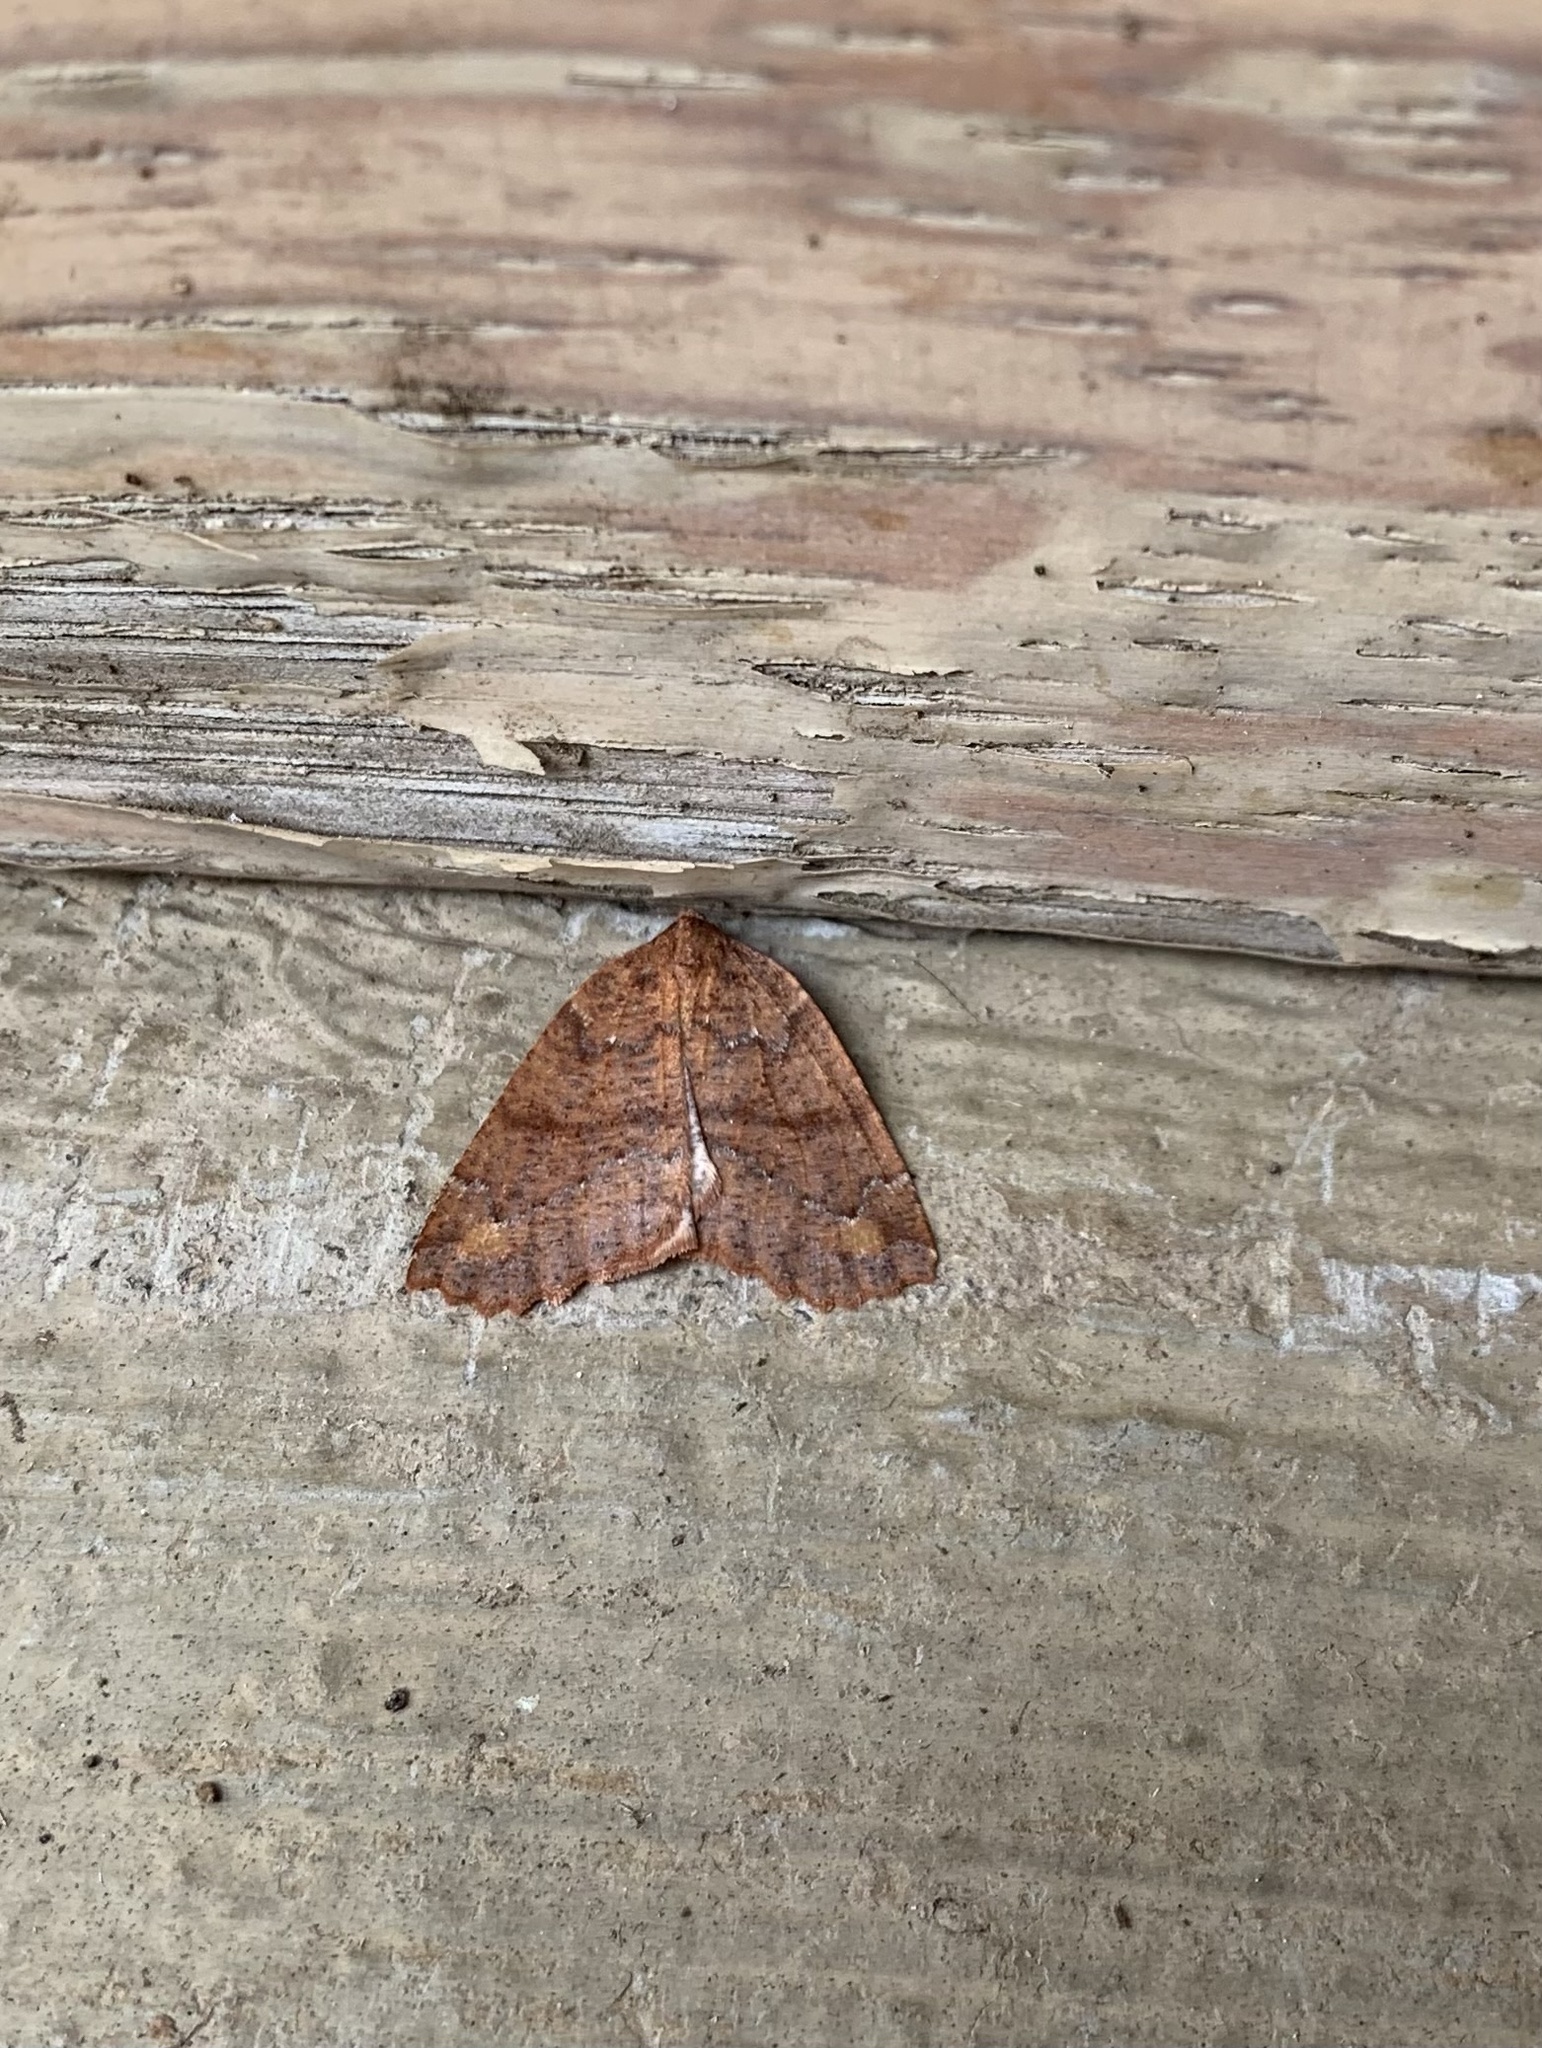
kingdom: Animalia
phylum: Arthropoda
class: Insecta
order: Lepidoptera
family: Geometridae
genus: Franciscoia
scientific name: Franciscoia
